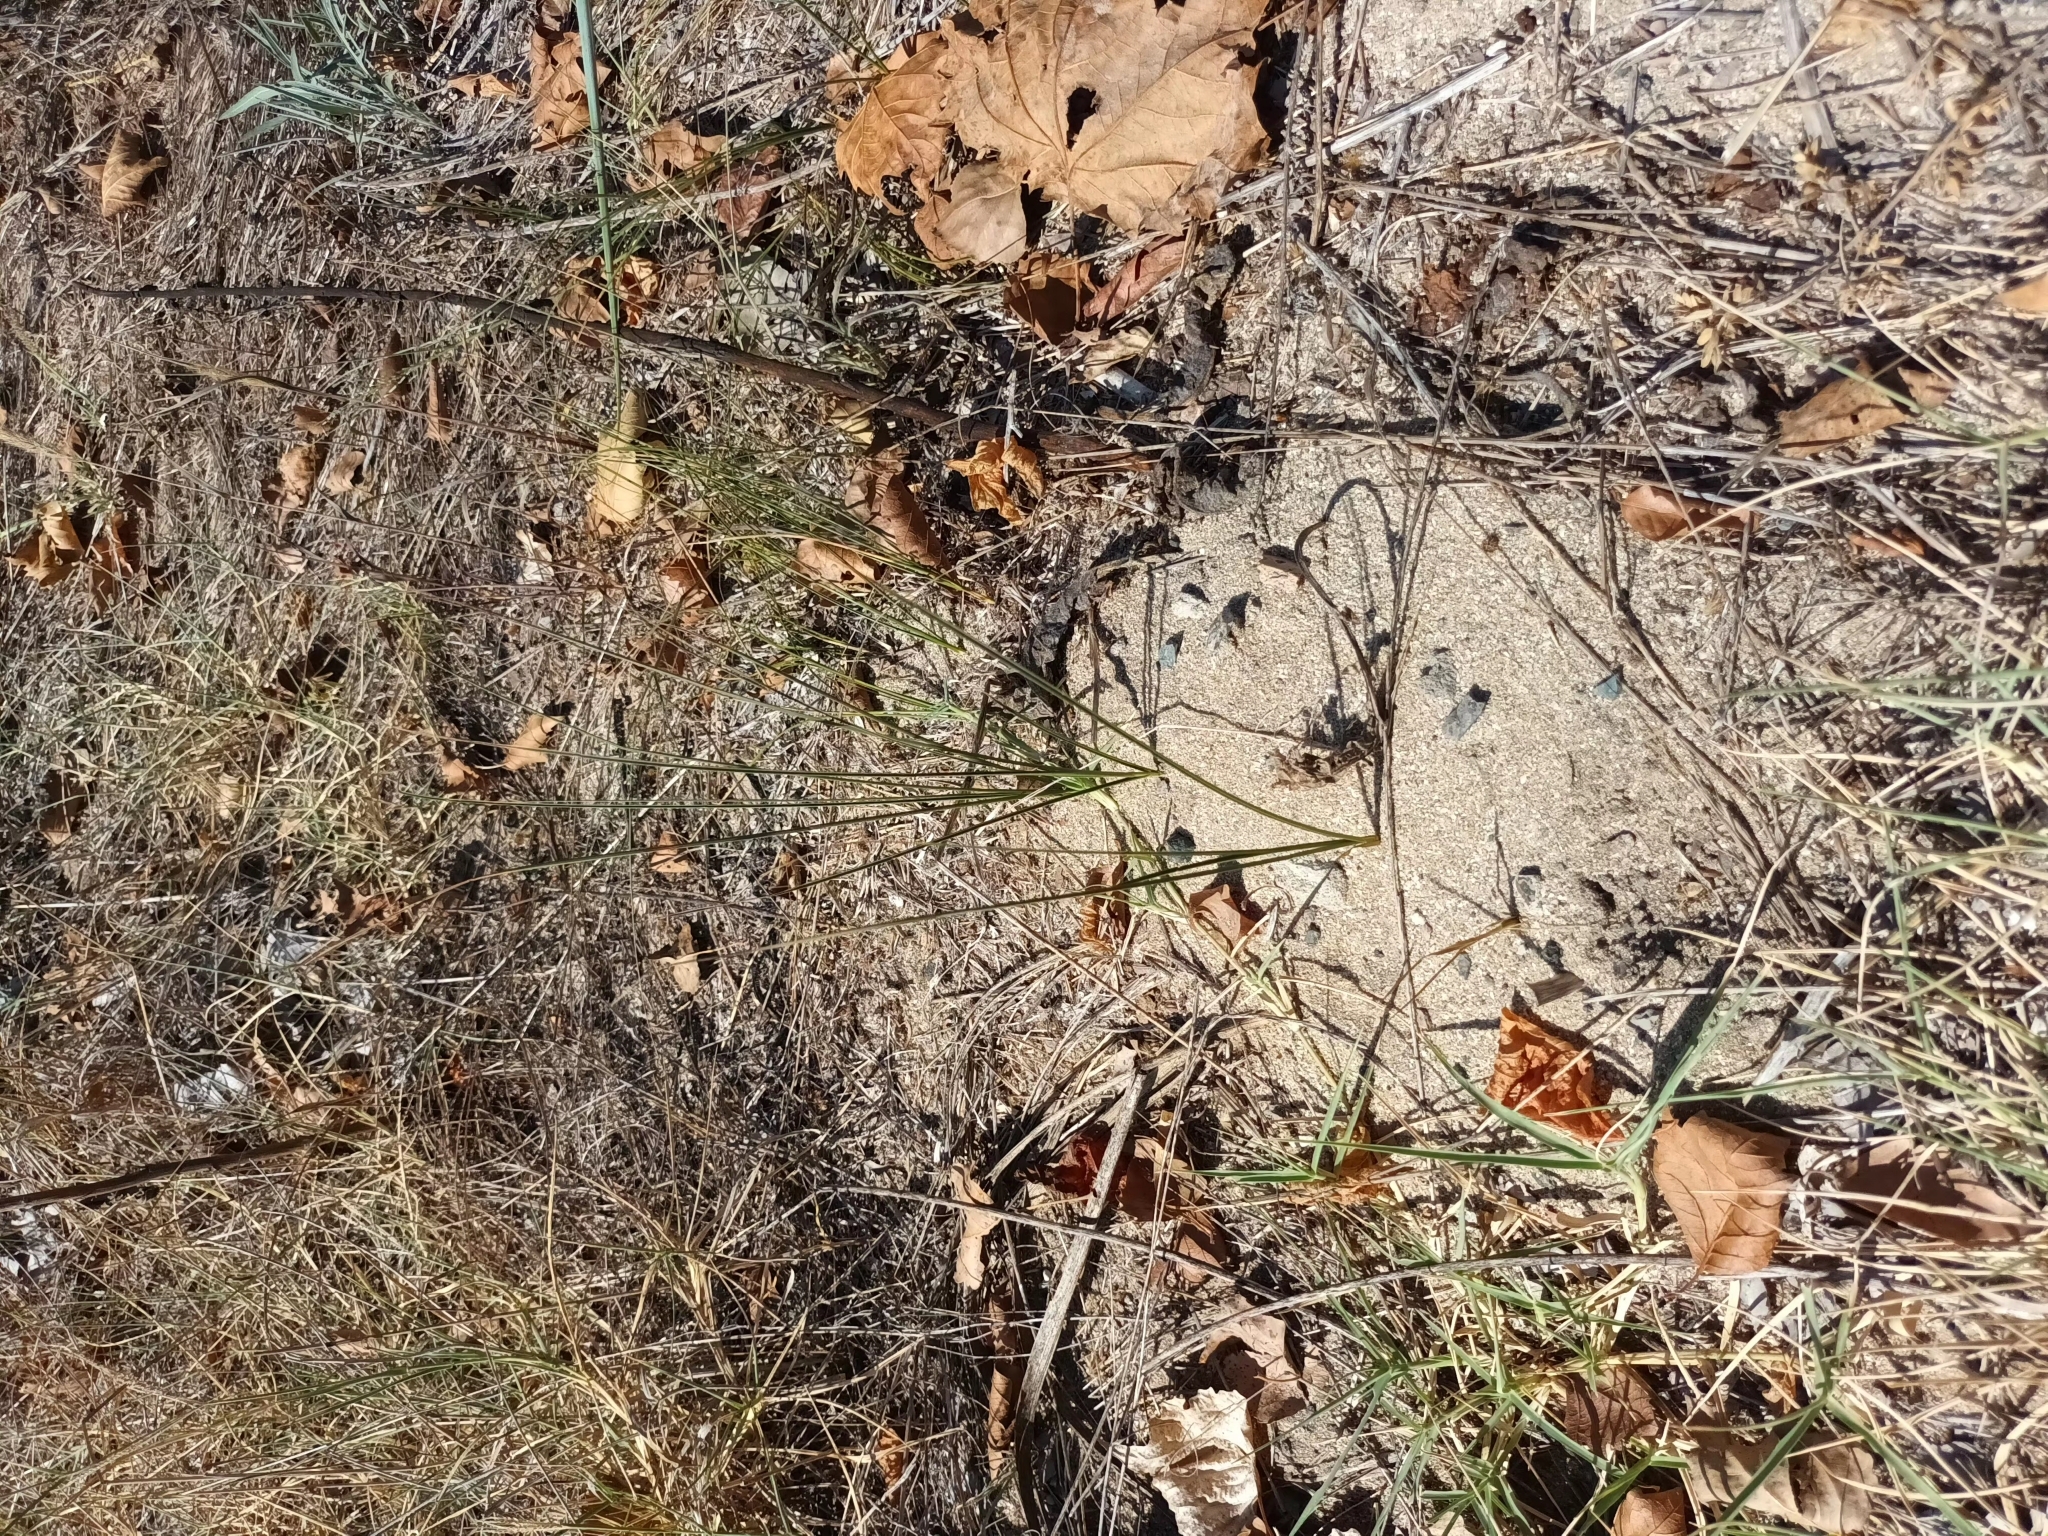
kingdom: Plantae
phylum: Tracheophyta
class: Liliopsida
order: Poales
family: Cyperaceae
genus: Carex
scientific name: Carex colchica
